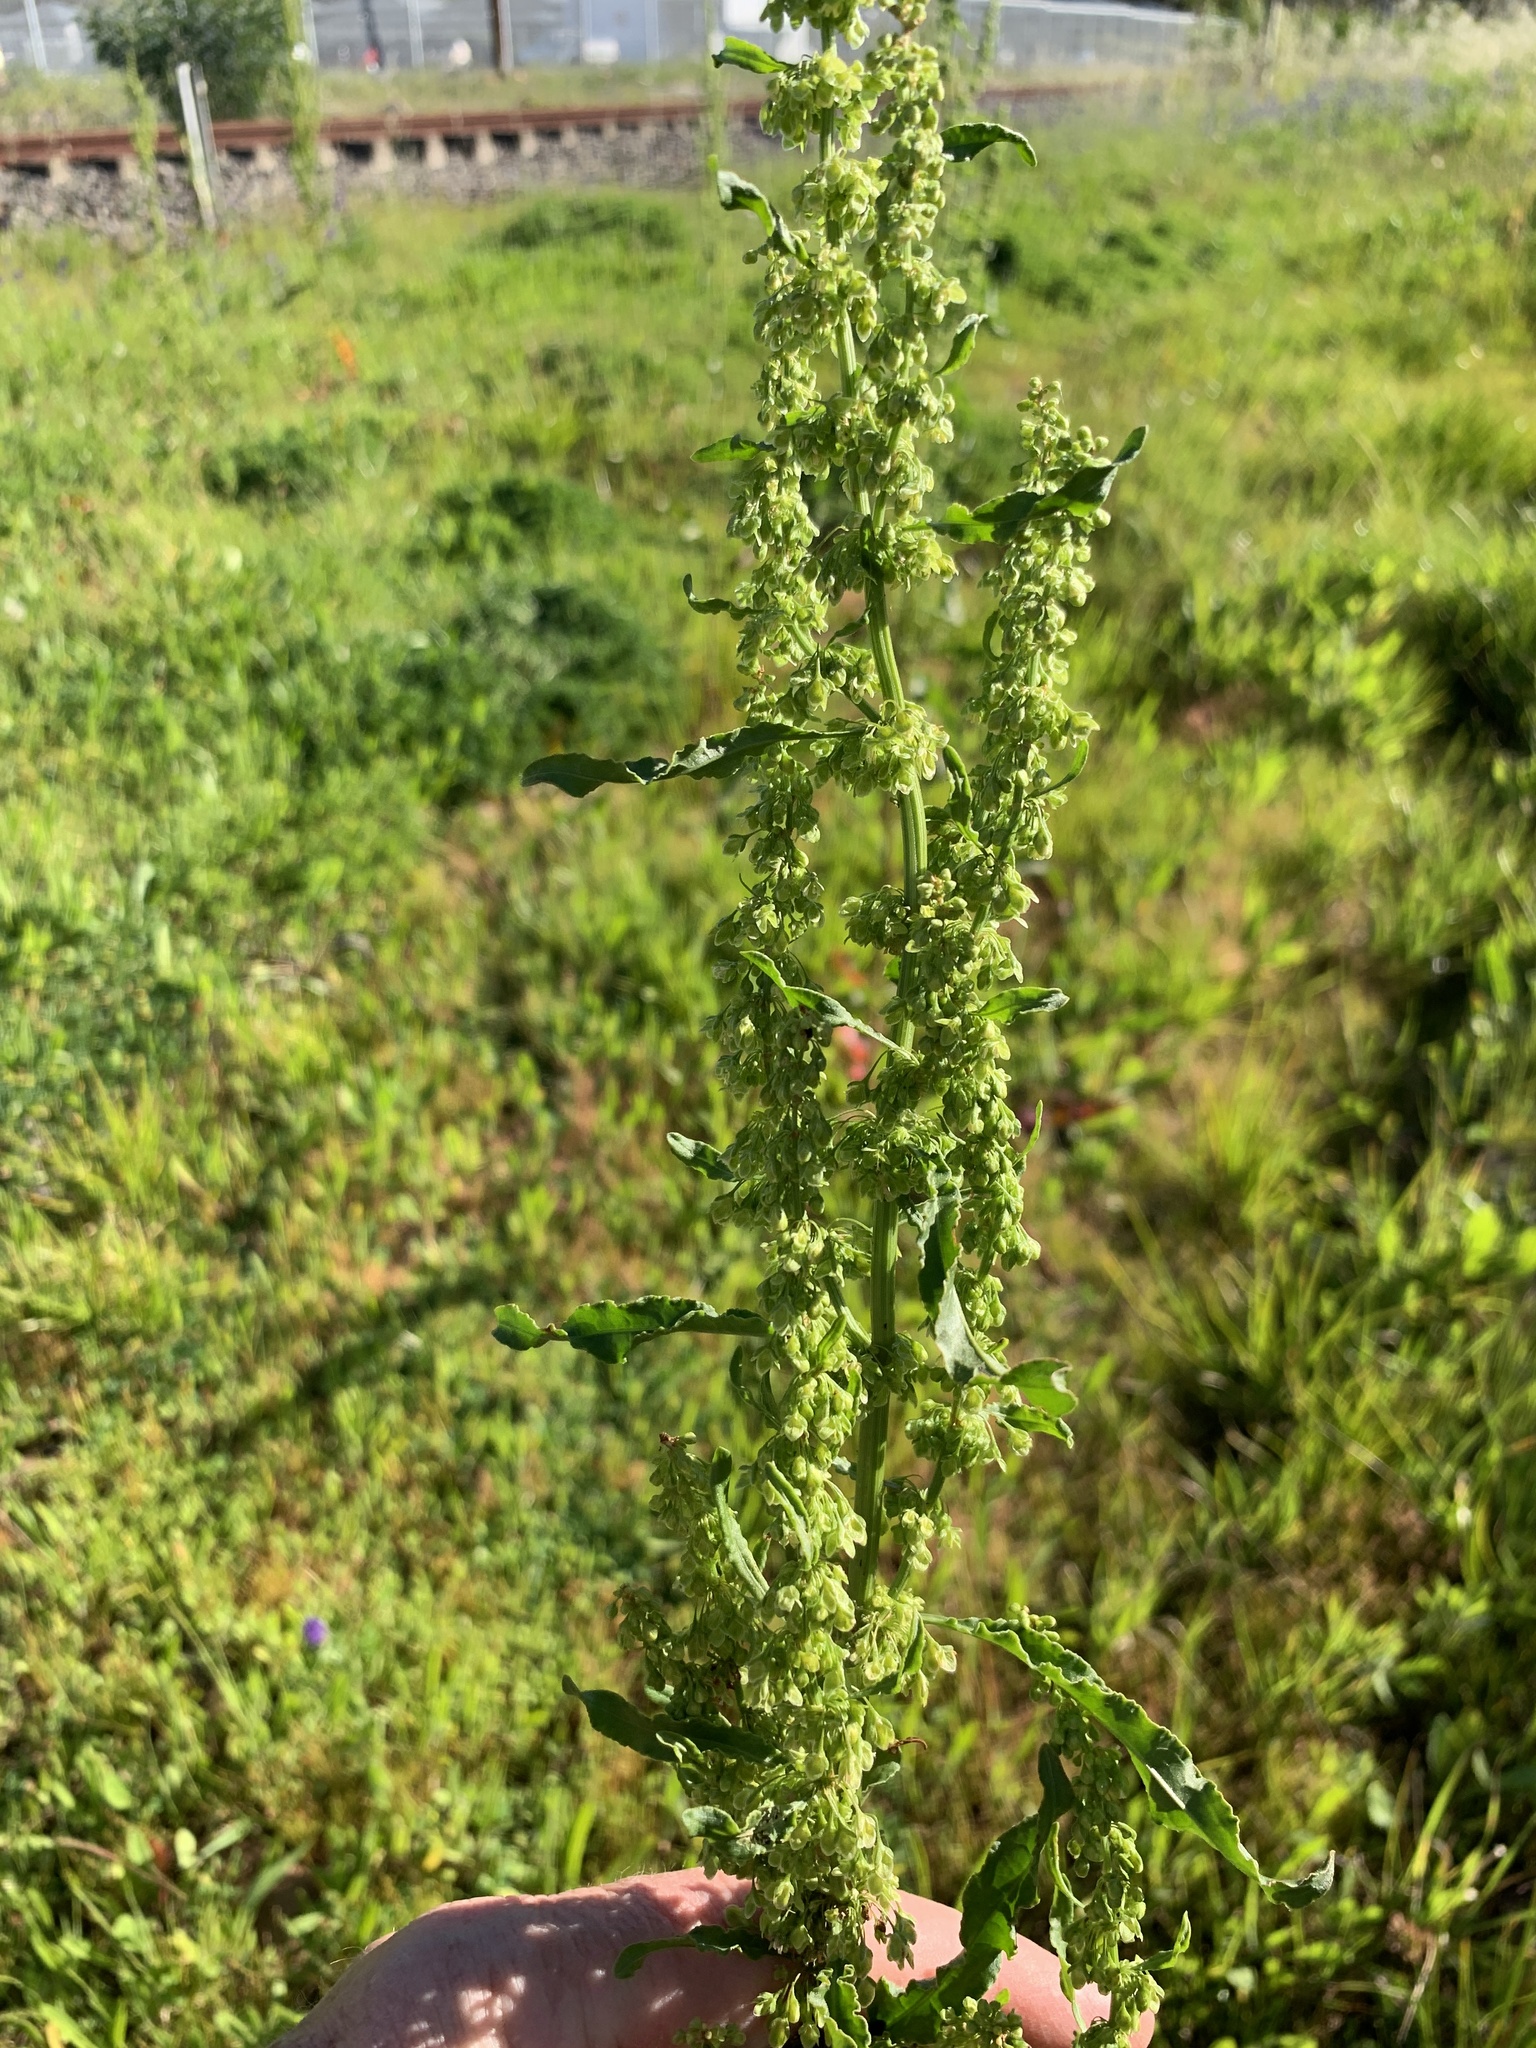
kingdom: Plantae
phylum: Tracheophyta
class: Magnoliopsida
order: Caryophyllales
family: Polygonaceae
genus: Rumex
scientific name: Rumex crispus
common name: Curled dock
